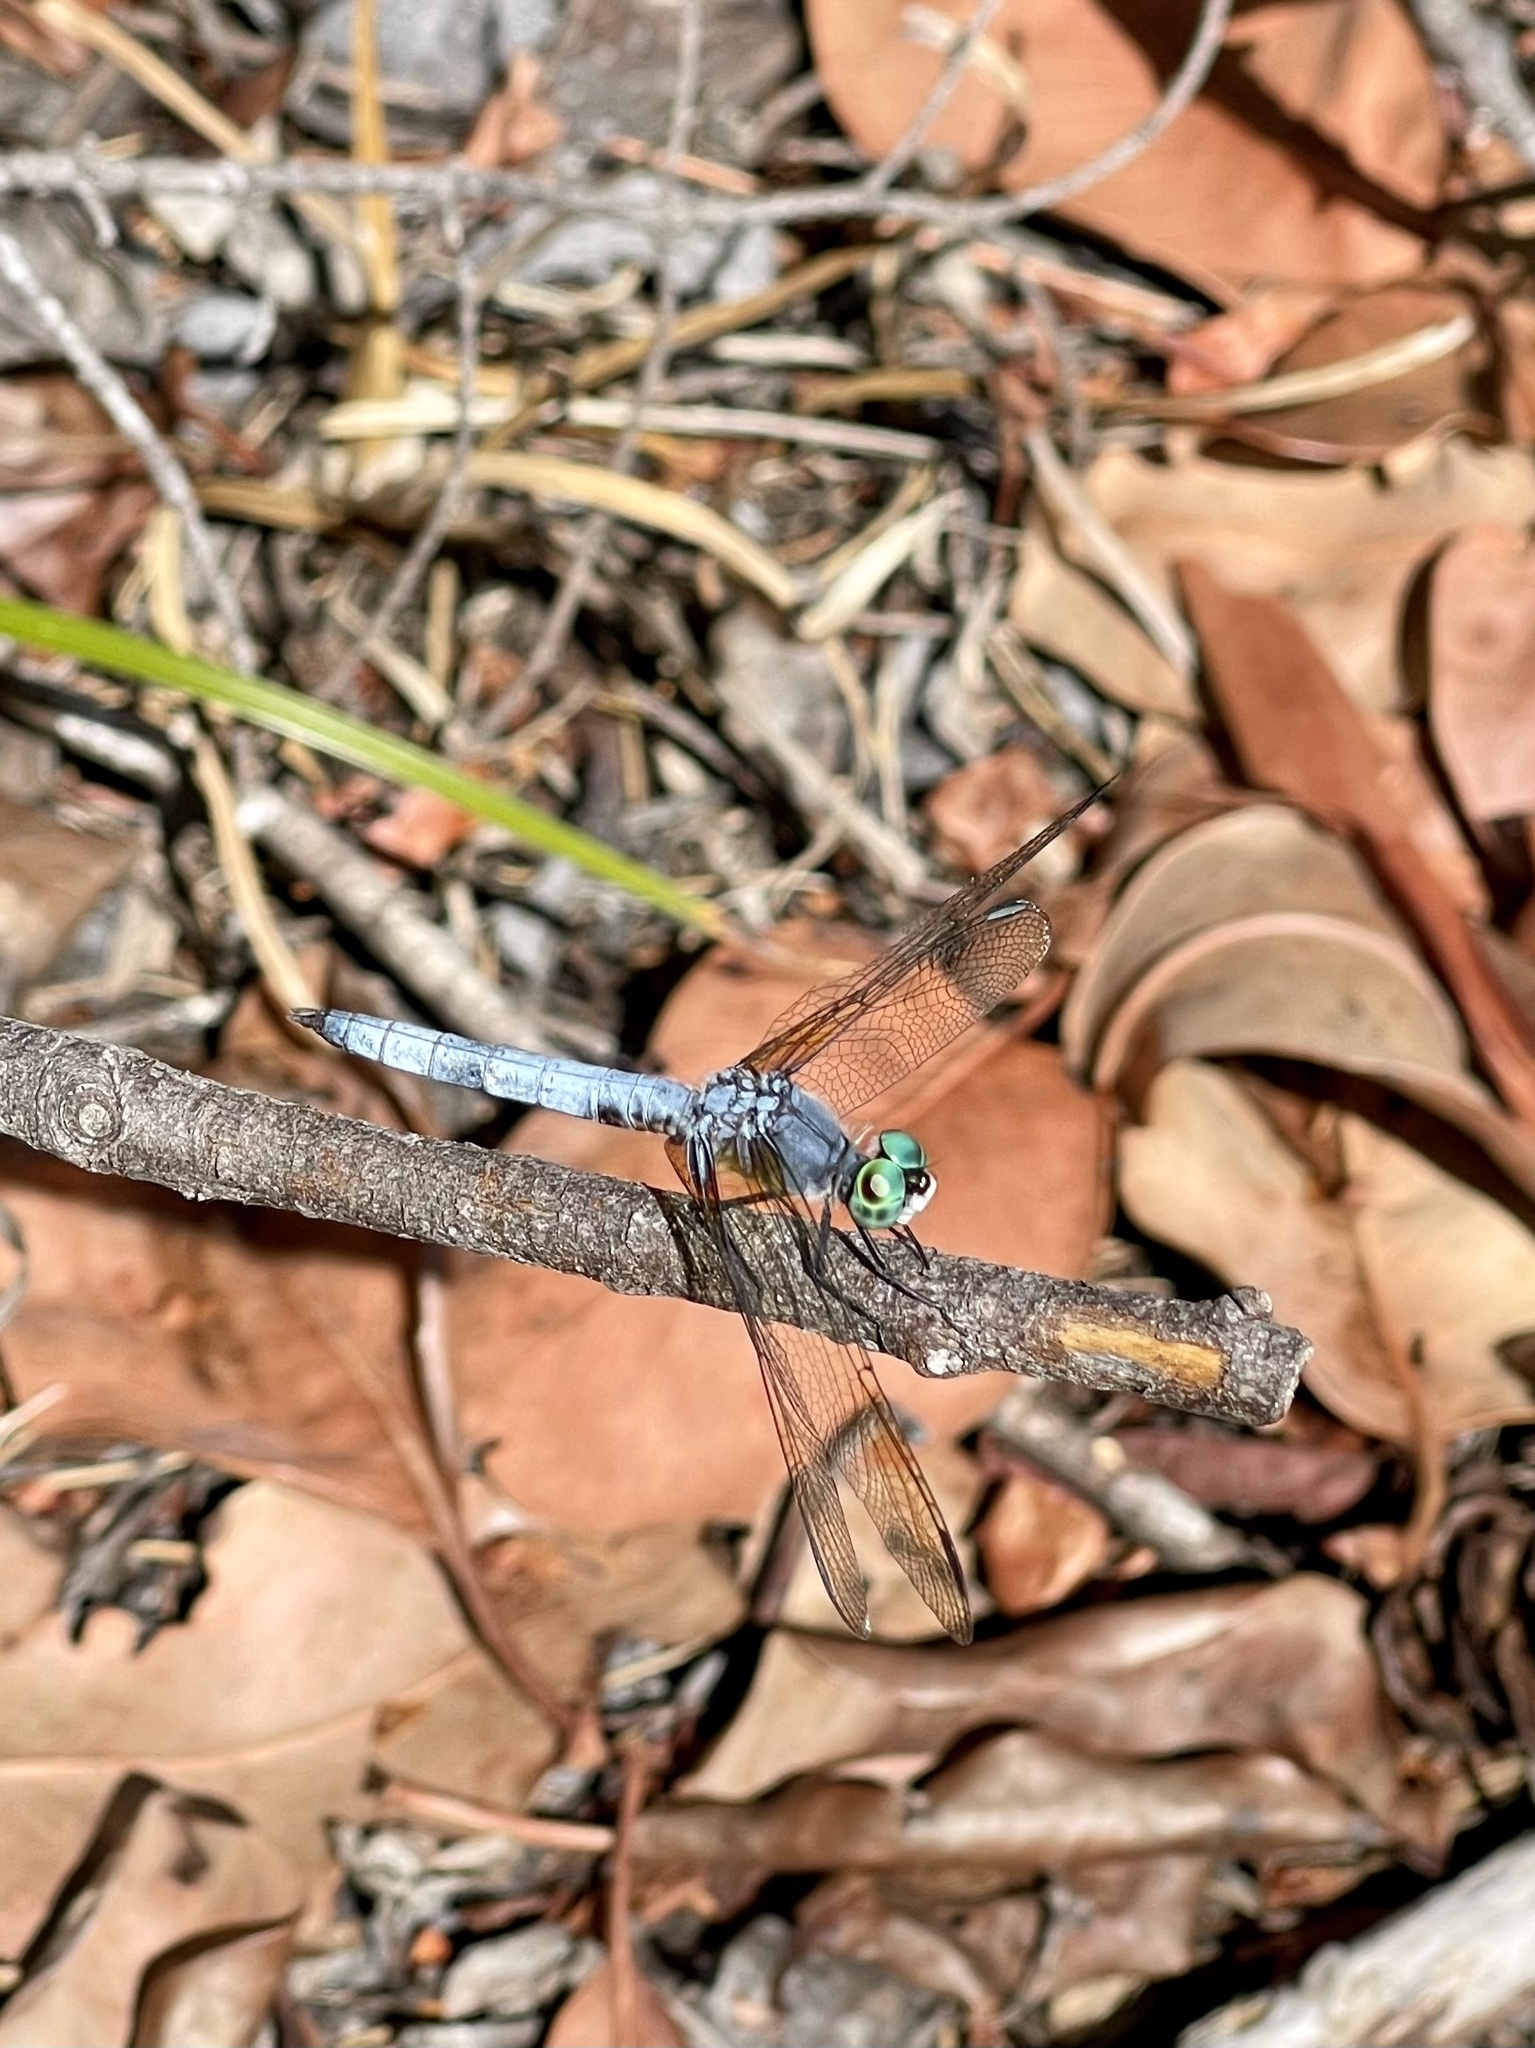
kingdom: Animalia
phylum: Arthropoda
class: Insecta
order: Odonata
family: Libellulidae
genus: Pachydiplax
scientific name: Pachydiplax longipennis
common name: Blue dasher
